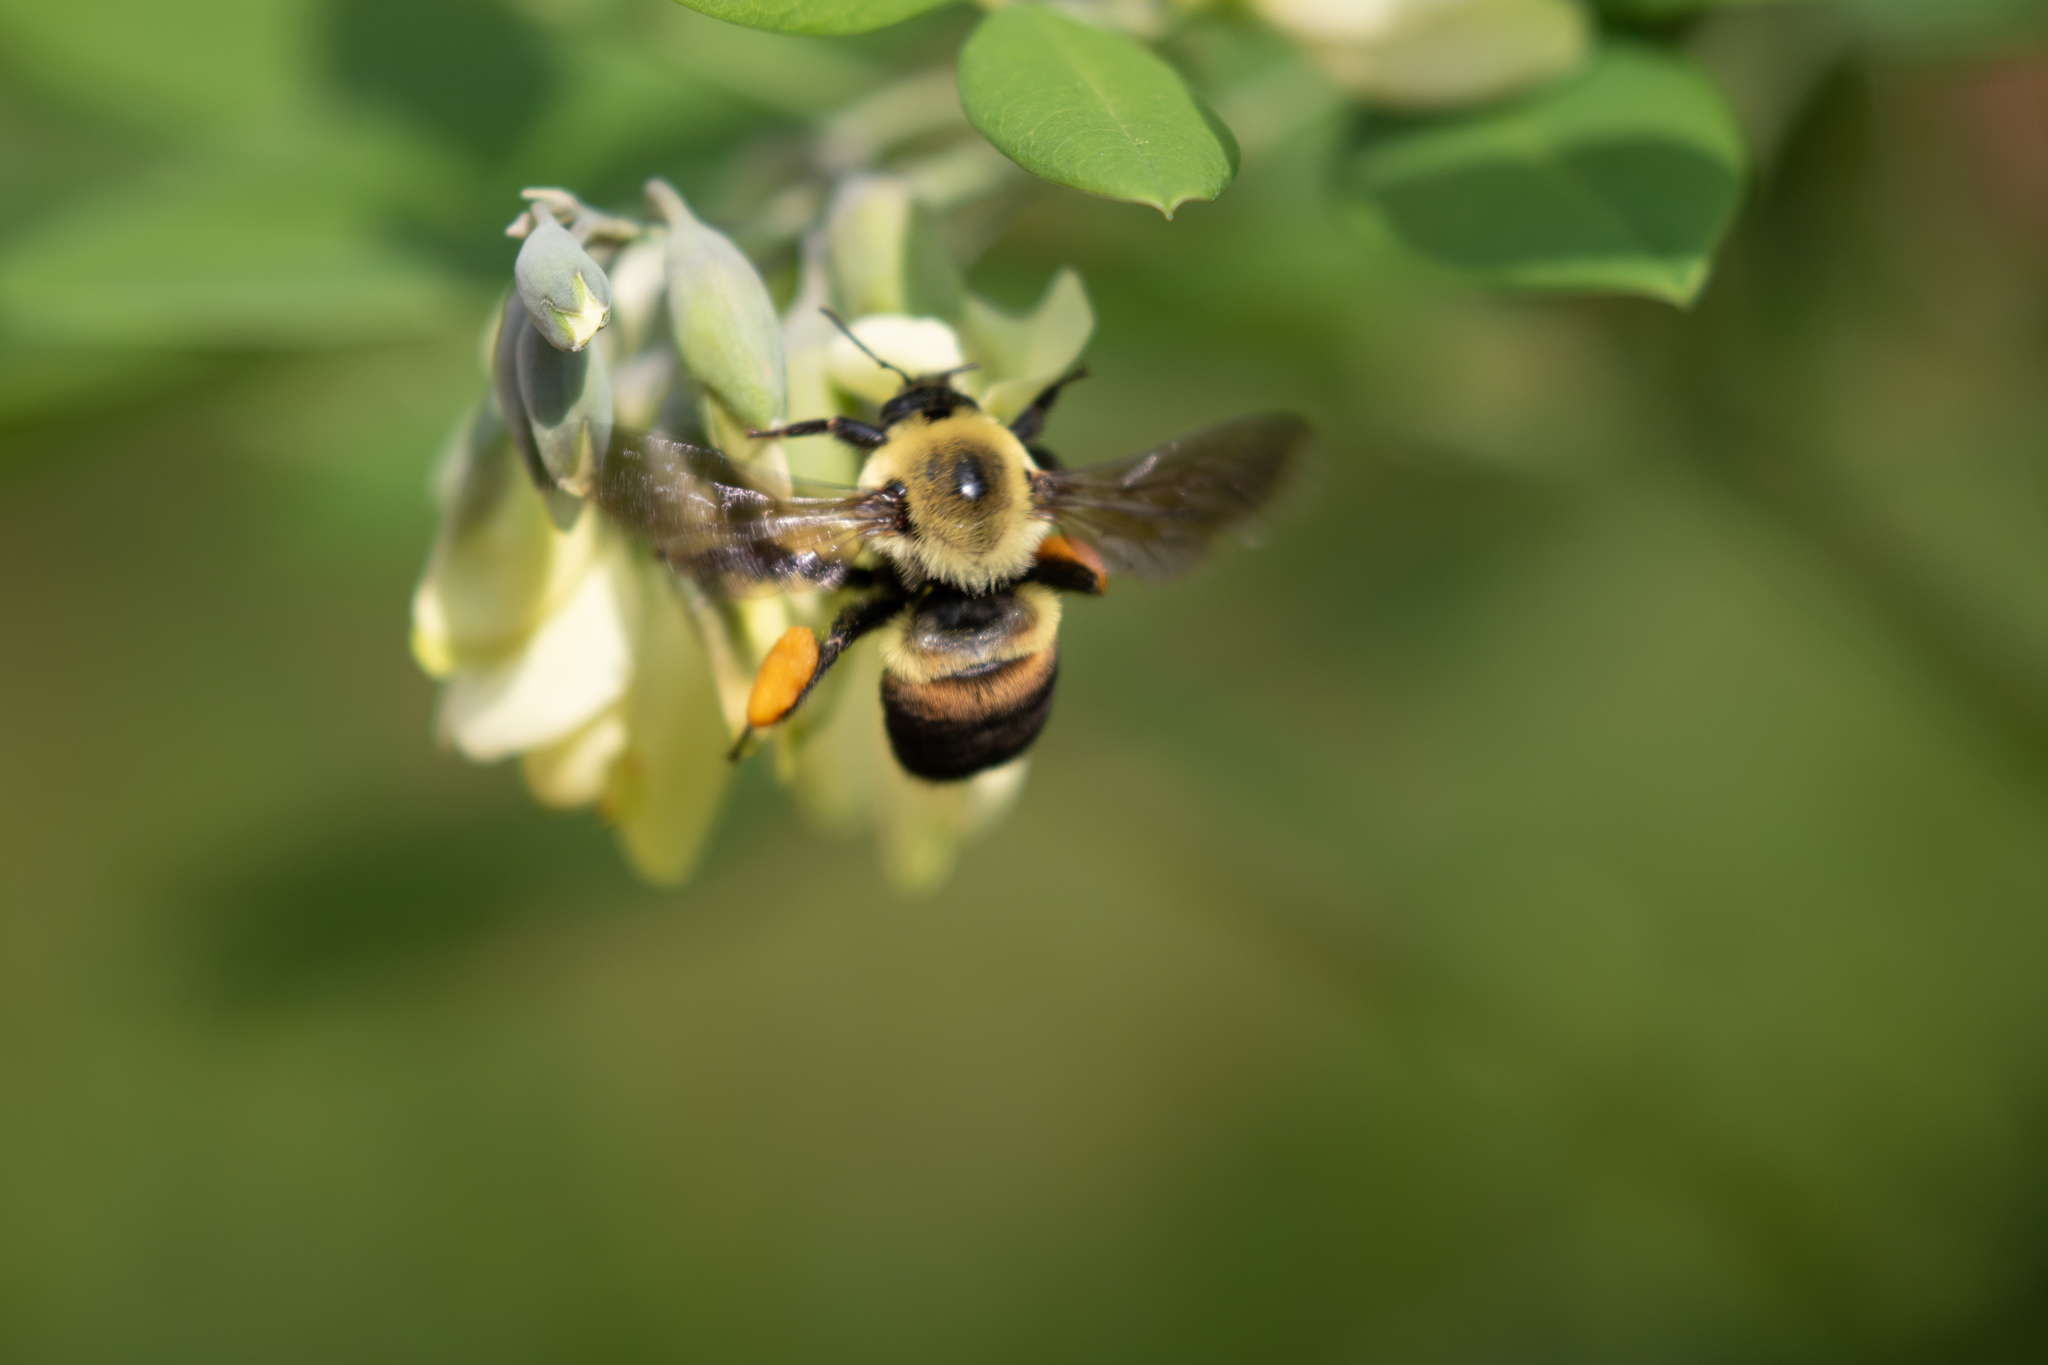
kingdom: Animalia
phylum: Arthropoda
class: Insecta
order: Hymenoptera
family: Apidae
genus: Bombus
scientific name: Bombus griseocollis
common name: Brown-belted bumble bee
